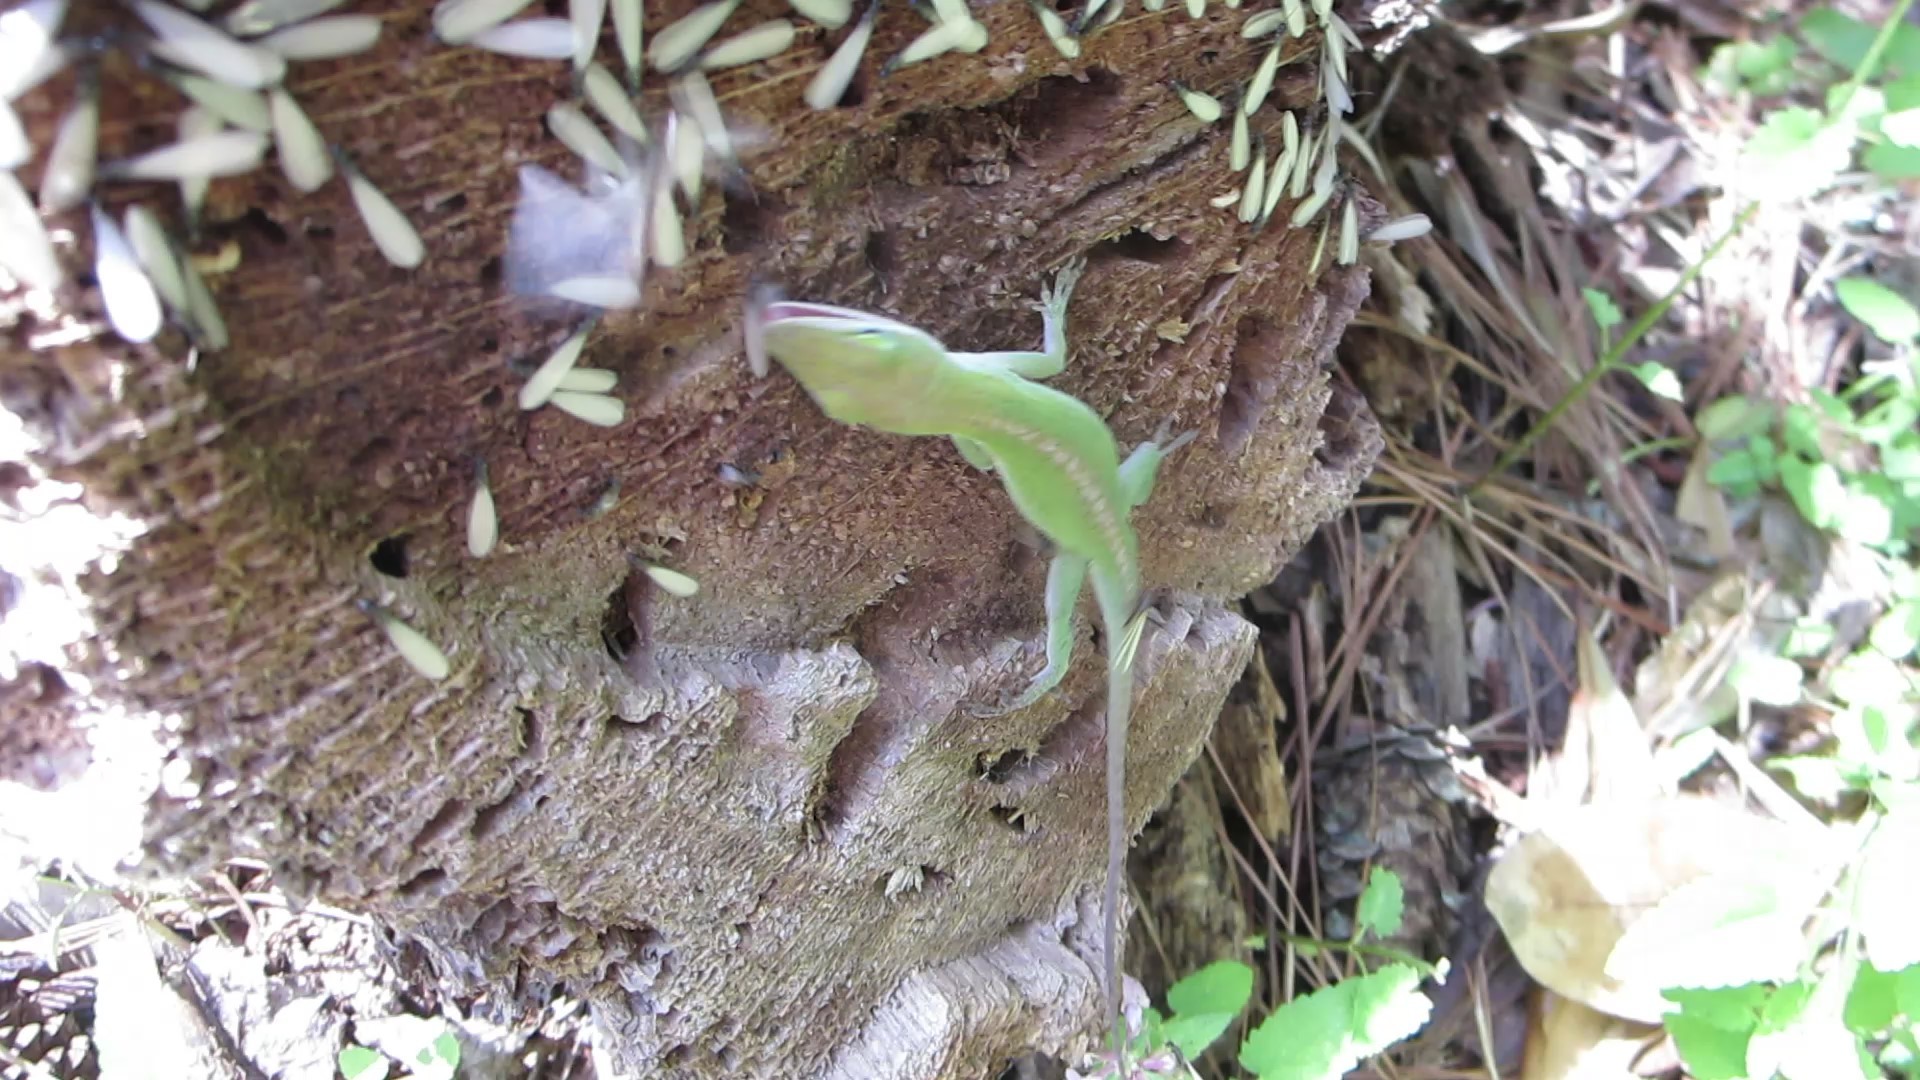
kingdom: Animalia
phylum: Chordata
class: Squamata
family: Dactyloidae
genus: Anolis
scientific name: Anolis carolinensis
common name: Green anole
